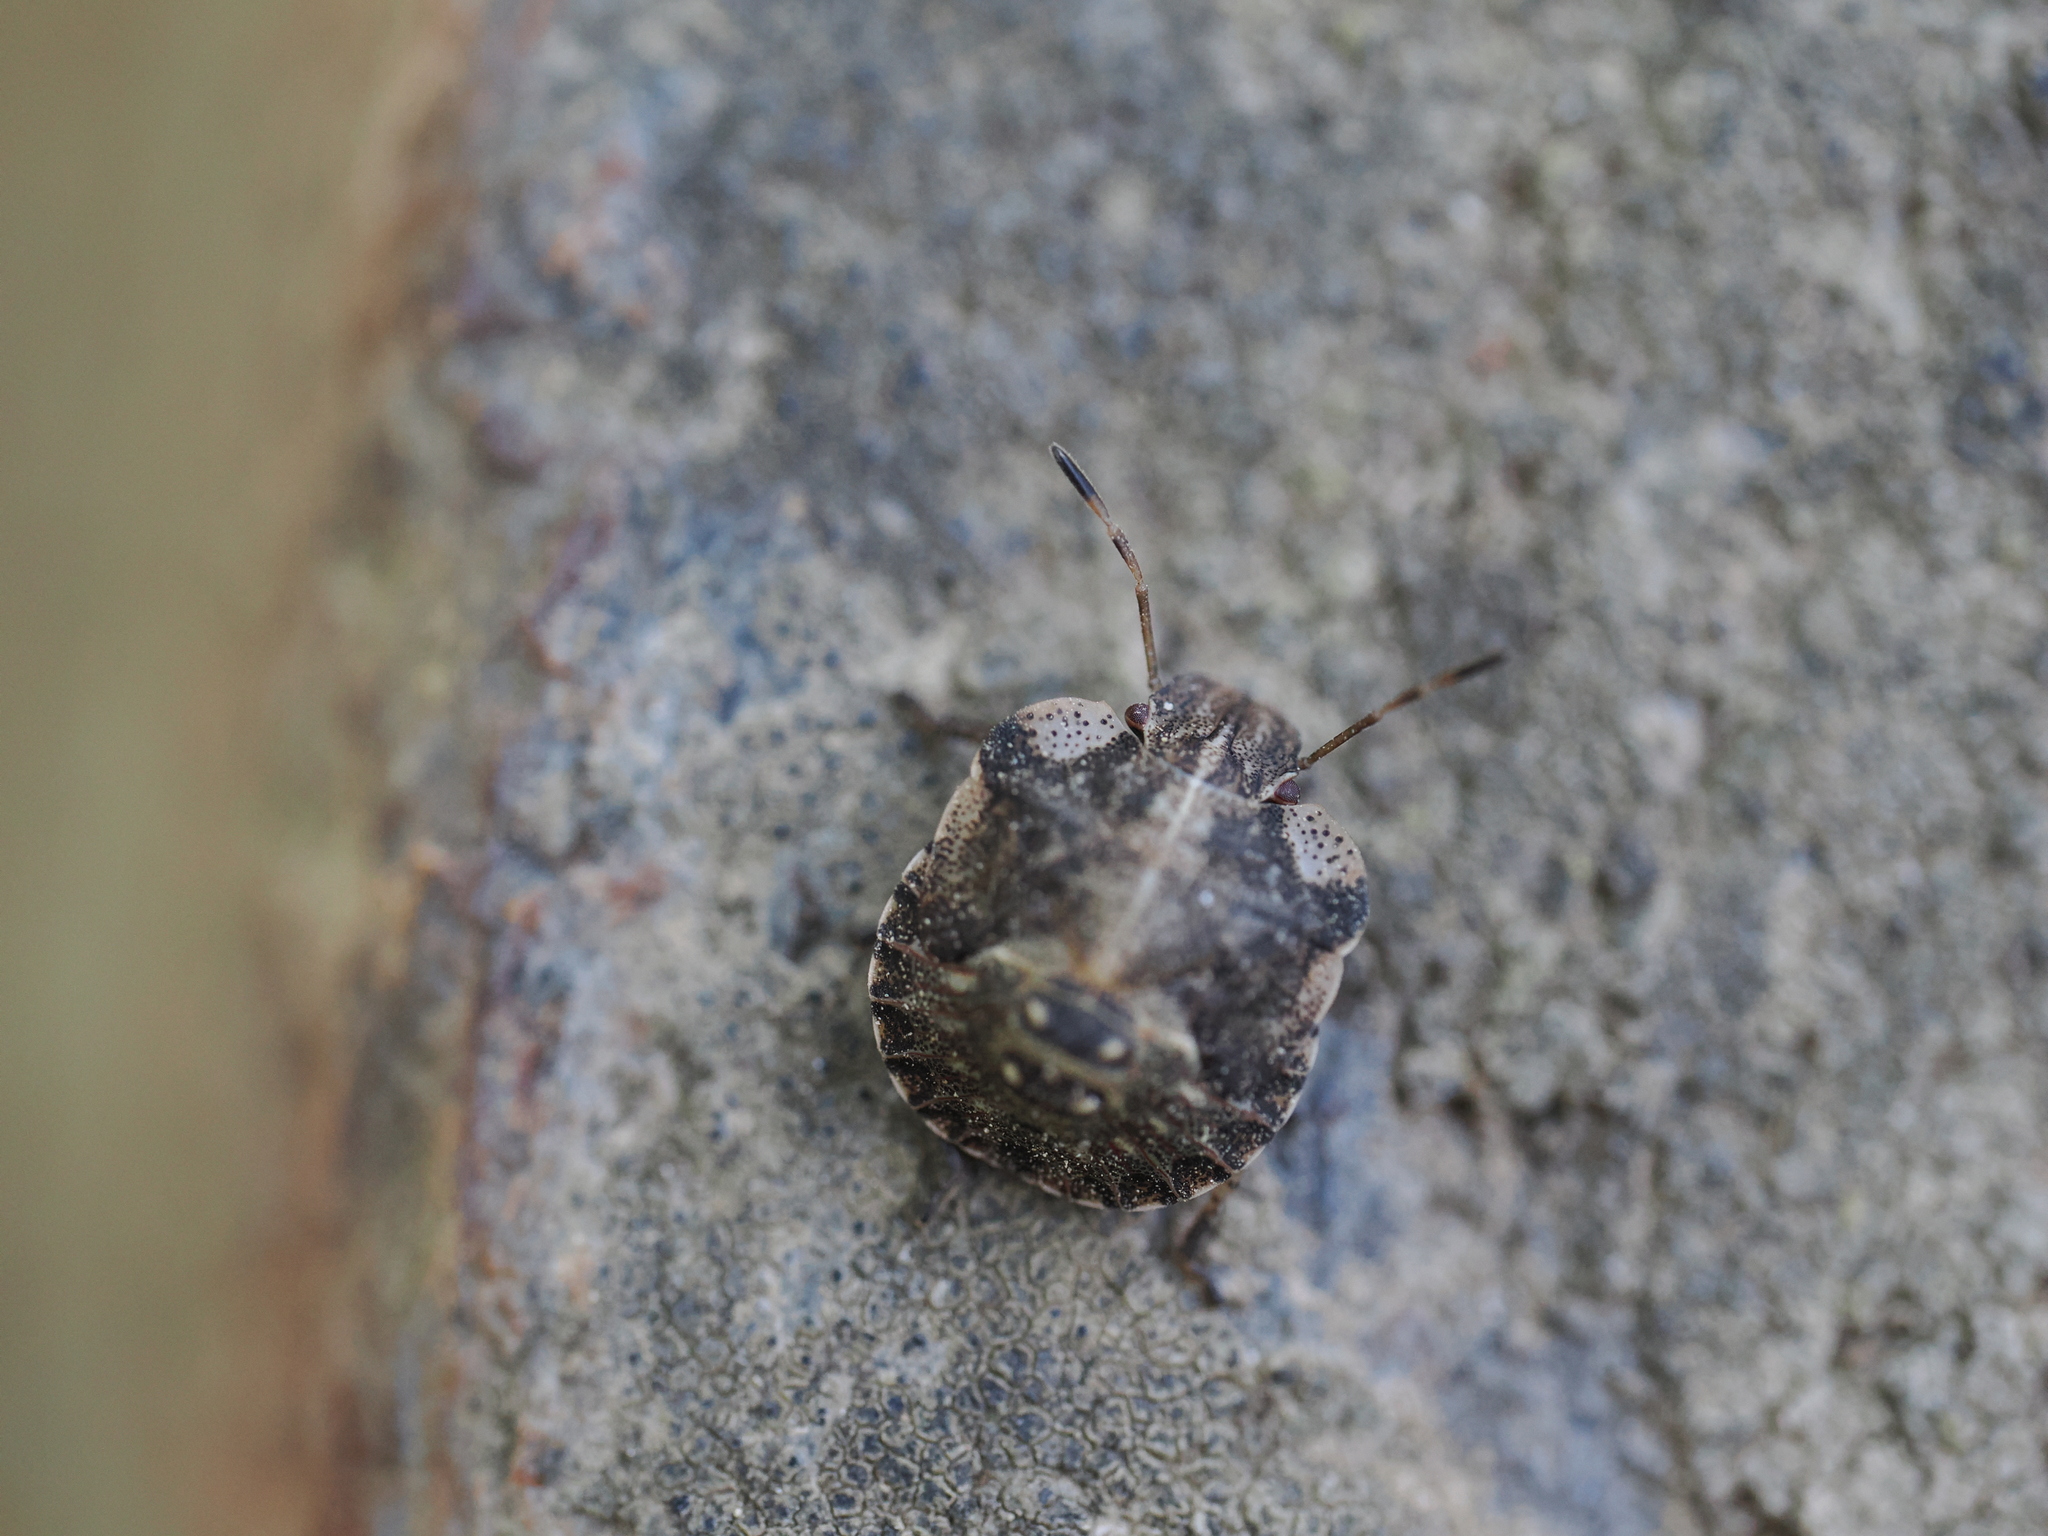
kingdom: Animalia
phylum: Arthropoda
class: Insecta
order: Hemiptera
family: Pentatomidae
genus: Dyroderes
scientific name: Dyroderes umbraculatus
